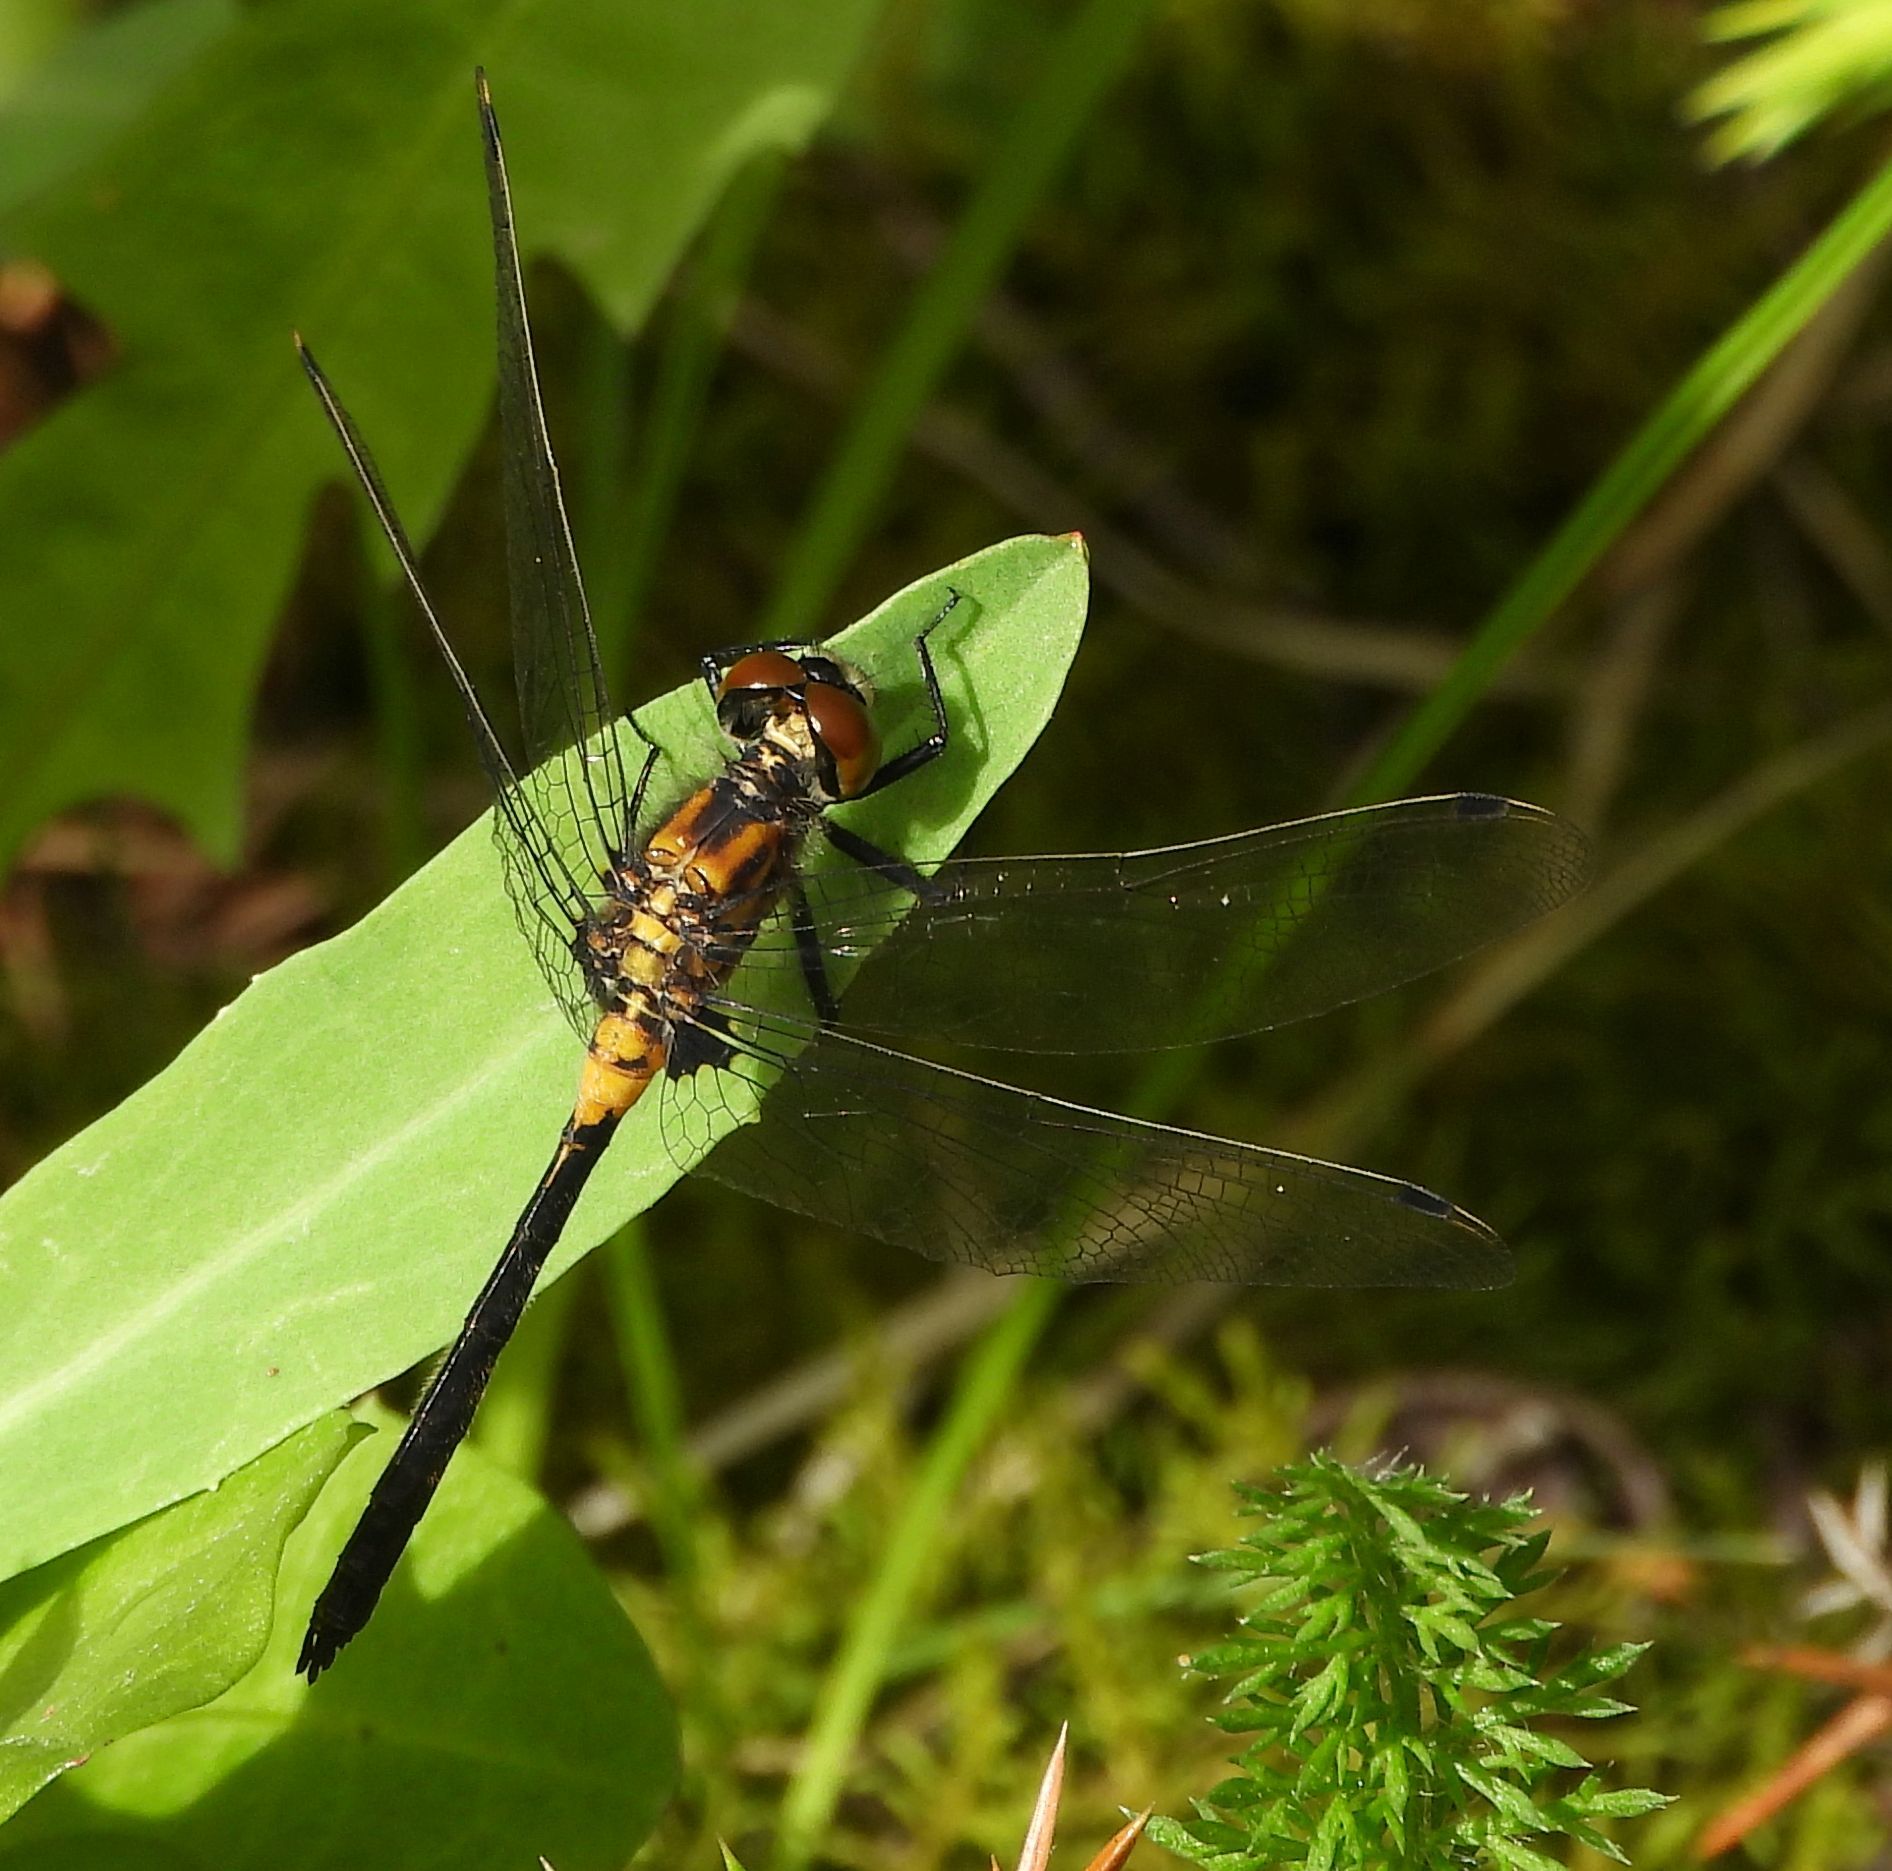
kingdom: Animalia
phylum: Arthropoda
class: Insecta
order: Odonata
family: Libellulidae
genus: Leucorrhinia
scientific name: Leucorrhinia proxima
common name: Belted whiteface
